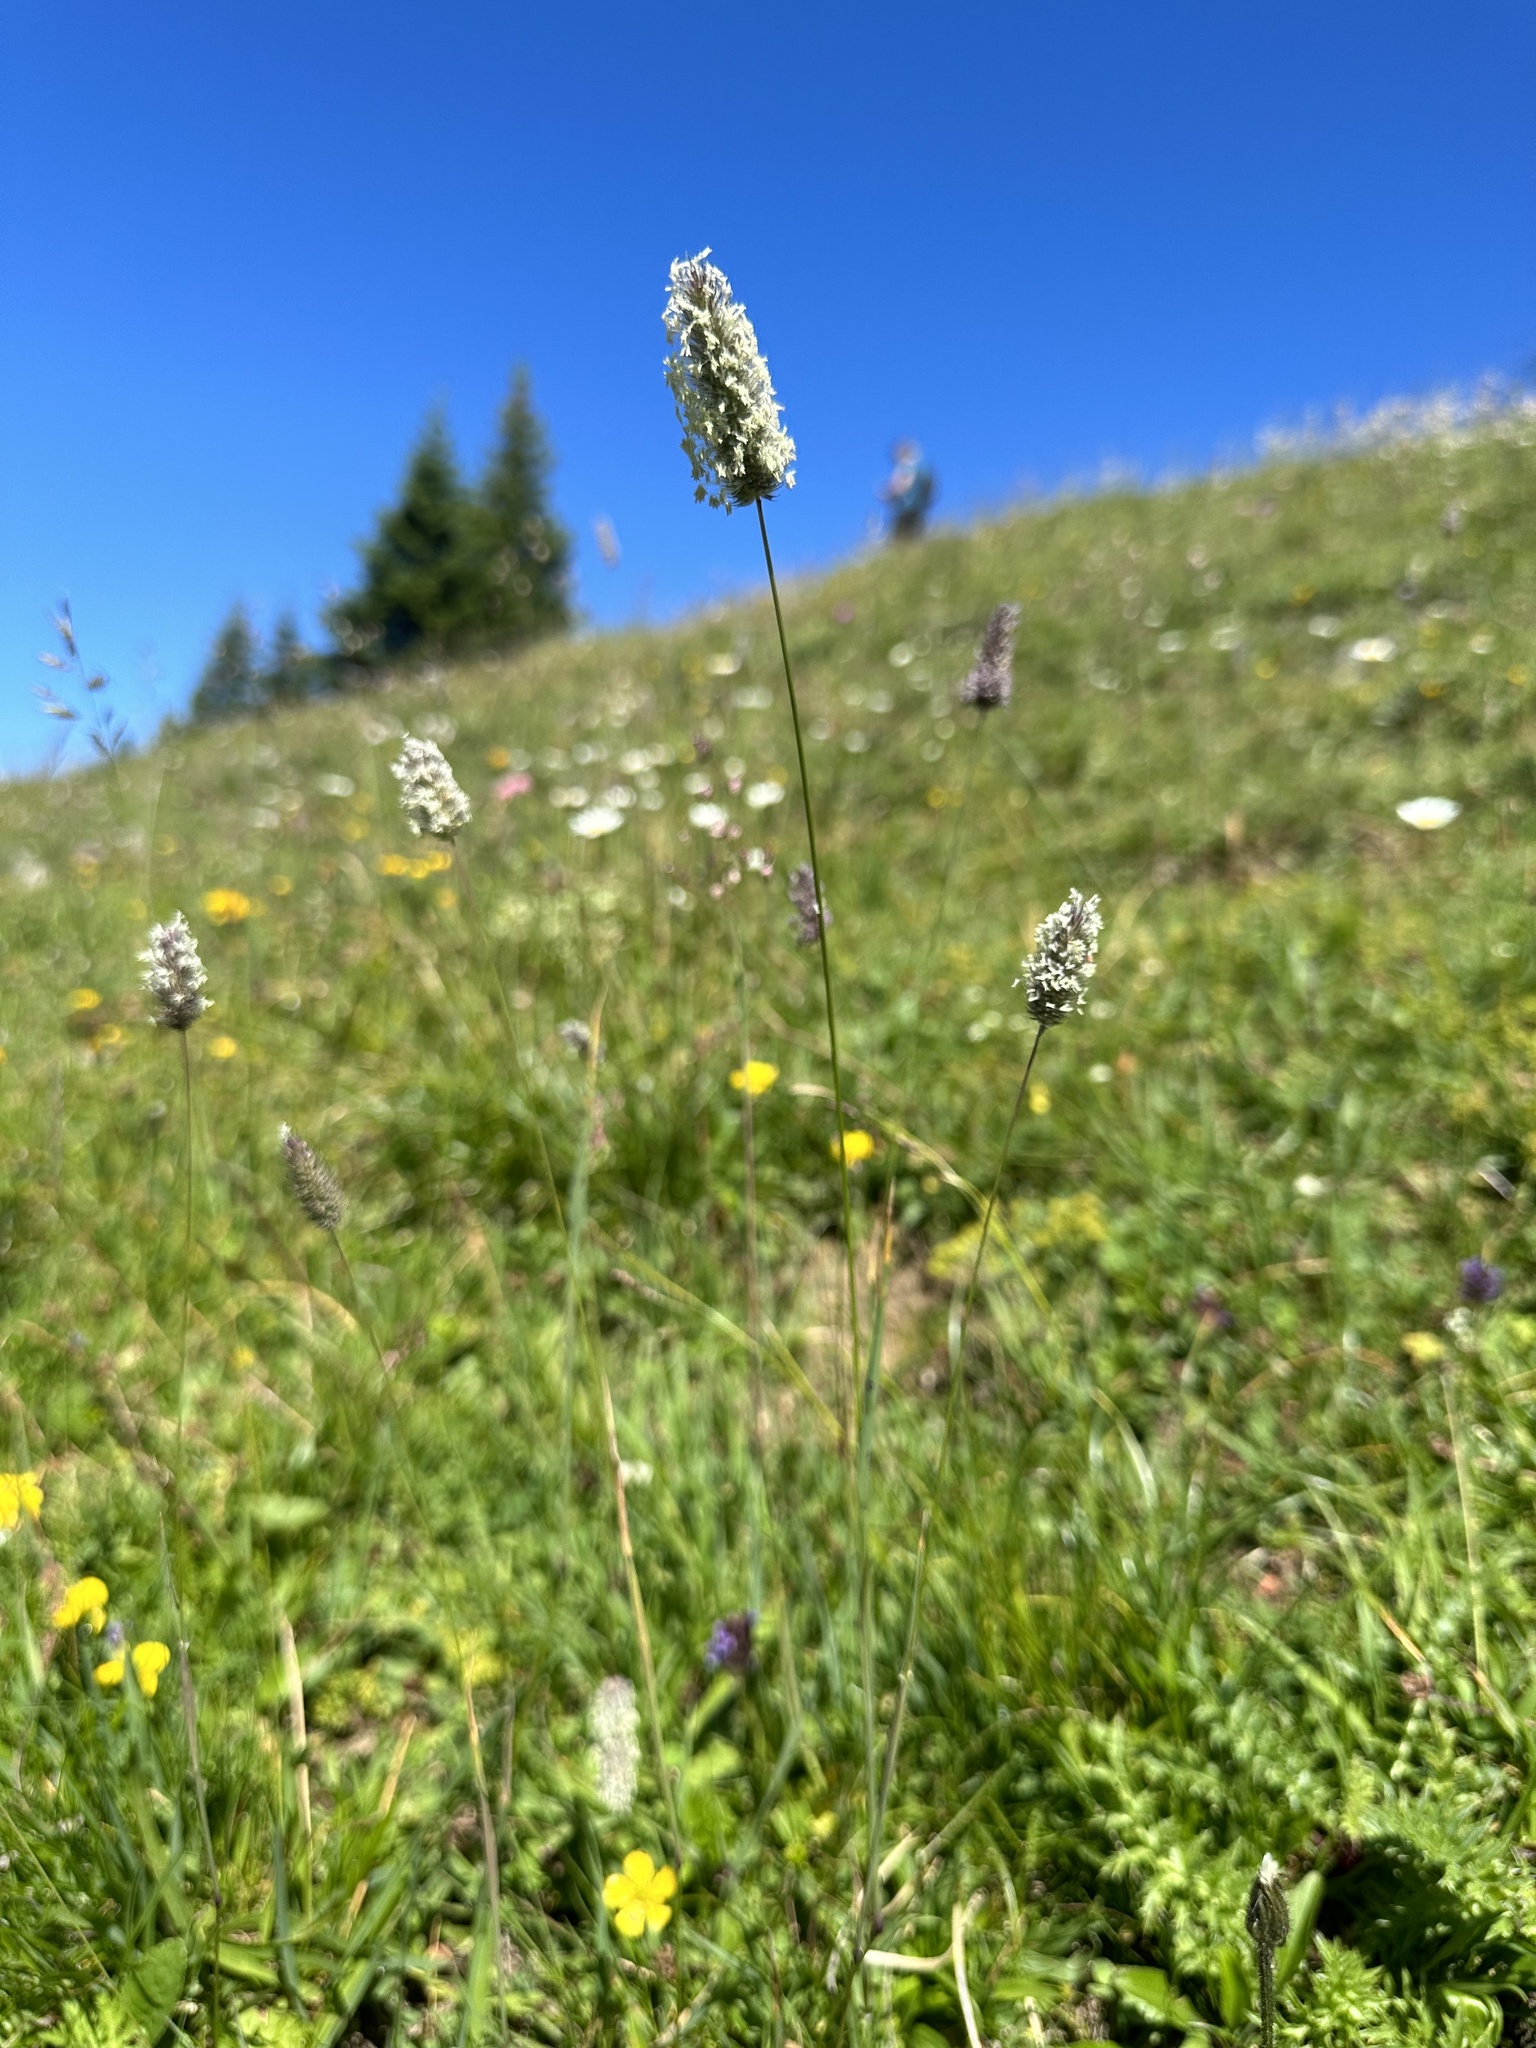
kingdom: Plantae
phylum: Tracheophyta
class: Liliopsida
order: Poales
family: Poaceae
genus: Phleum
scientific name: Phleum alpinum
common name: Alpine cat's-tail
